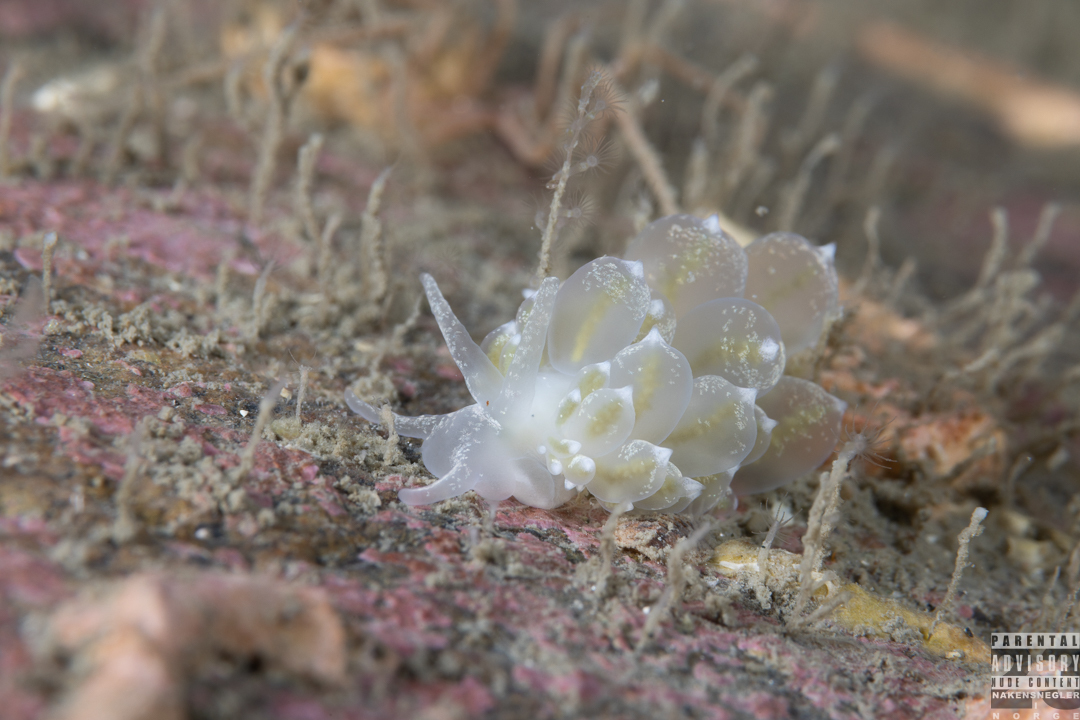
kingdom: Animalia
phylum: Mollusca
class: Gastropoda
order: Nudibranchia
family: Eubranchidae
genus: Amphorina
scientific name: Amphorina pallida
